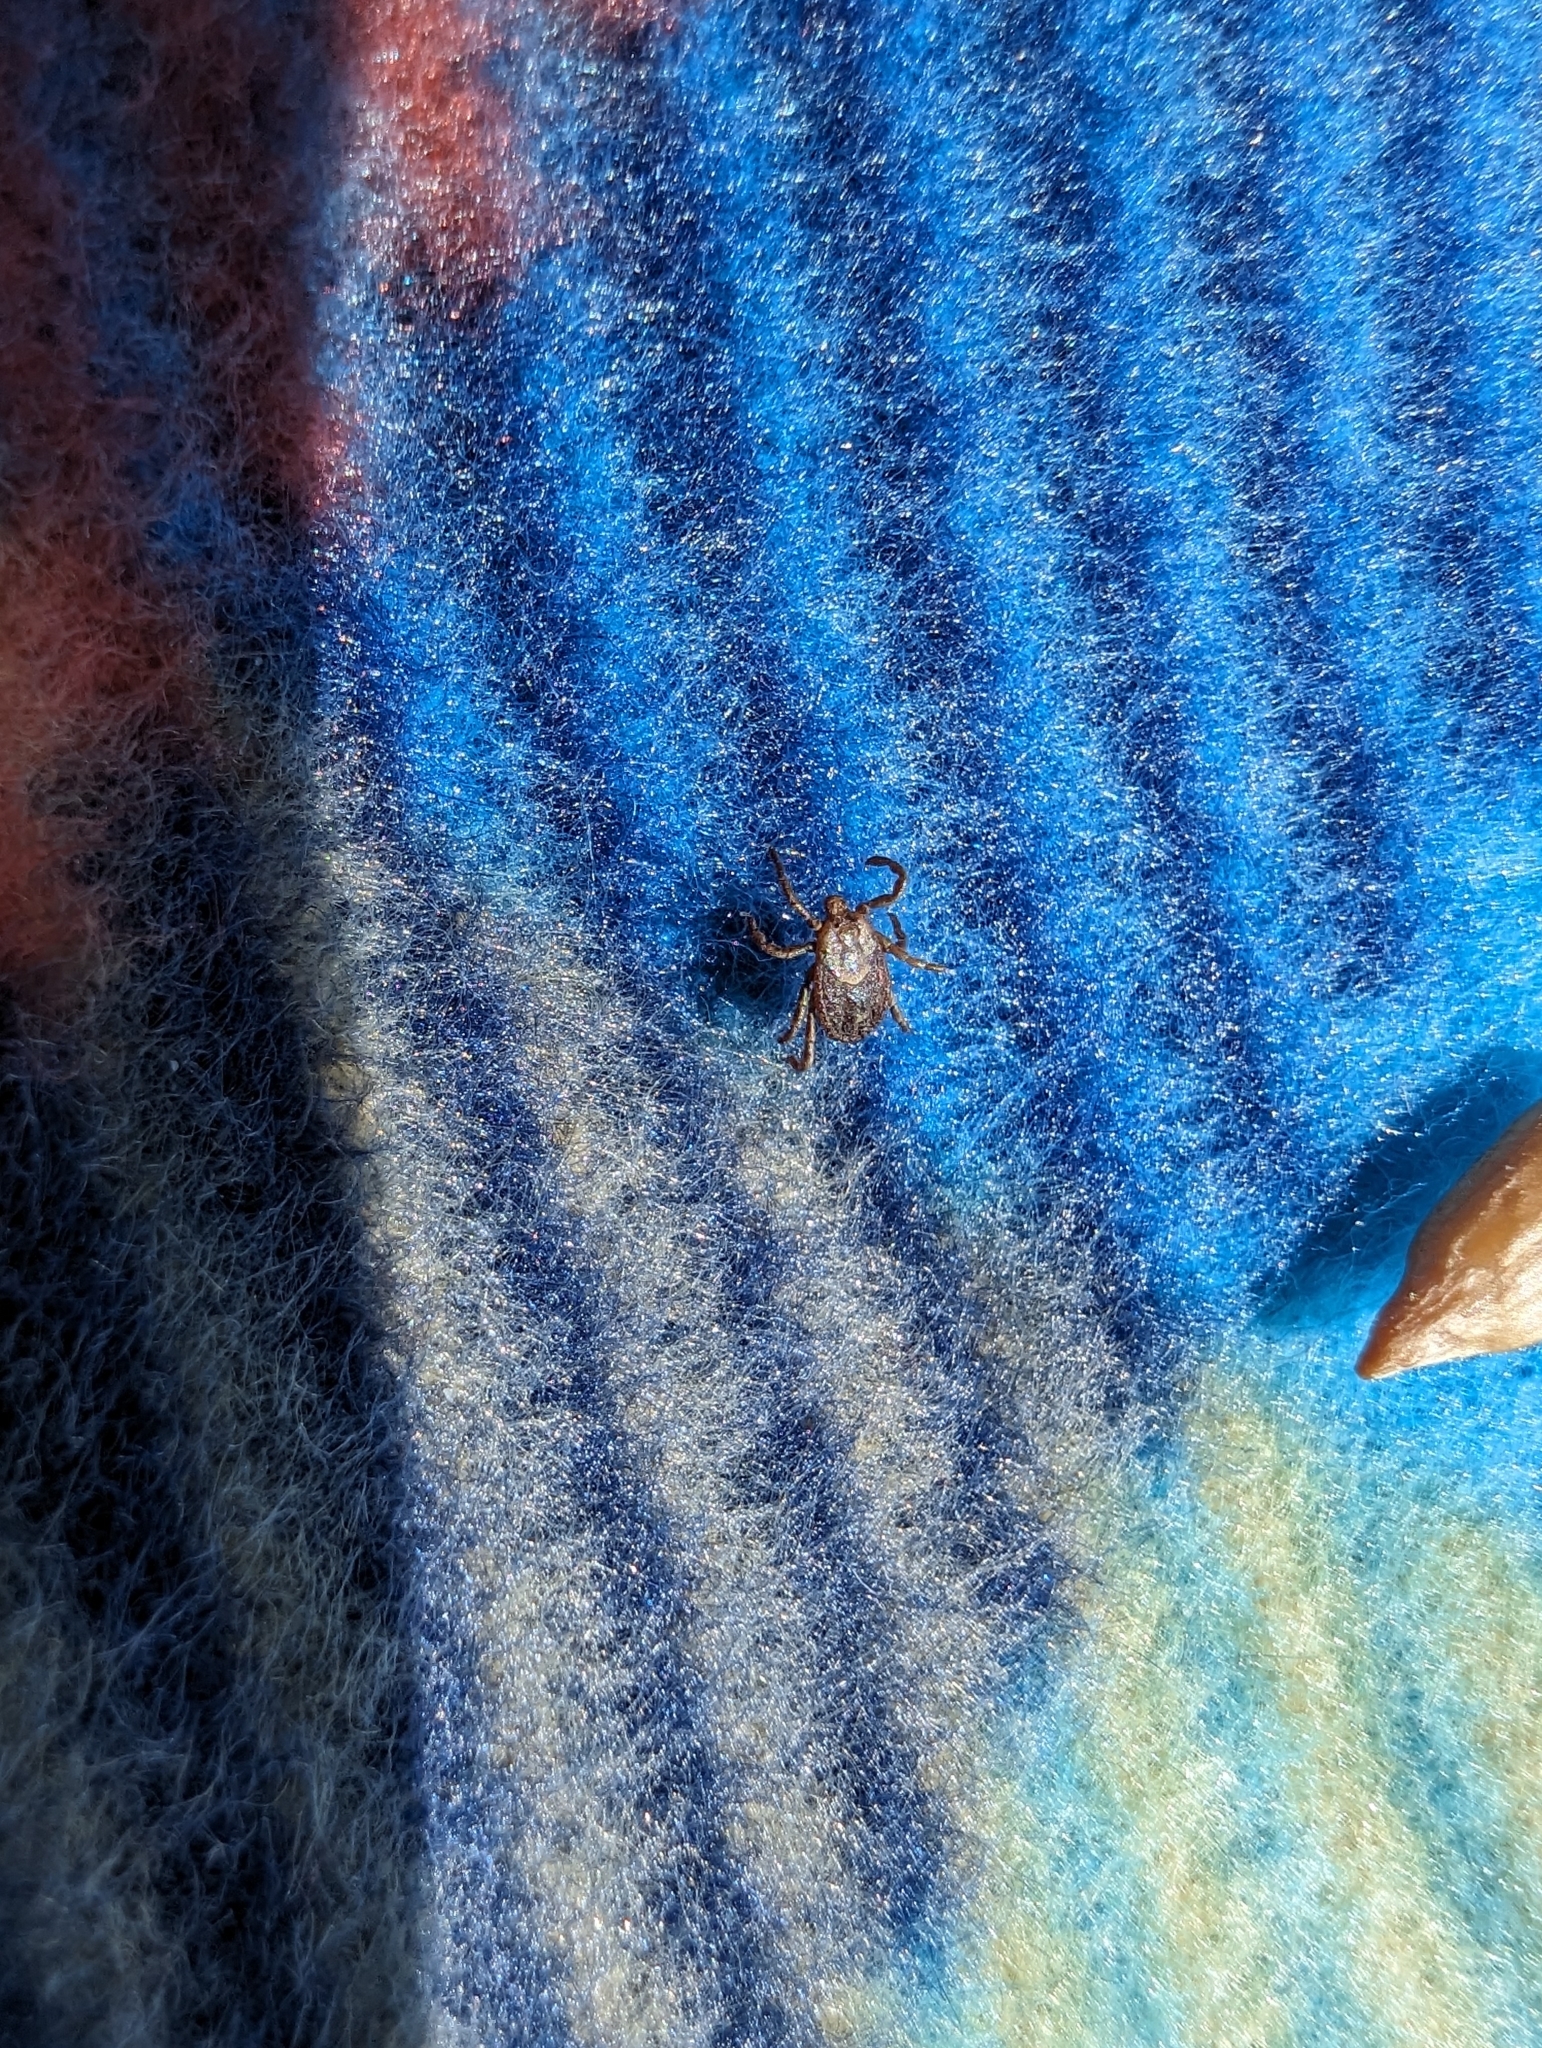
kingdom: Animalia
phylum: Arthropoda
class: Arachnida
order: Ixodida
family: Ixodidae
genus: Dermacentor
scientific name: Dermacentor occidentalis
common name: Net tick
